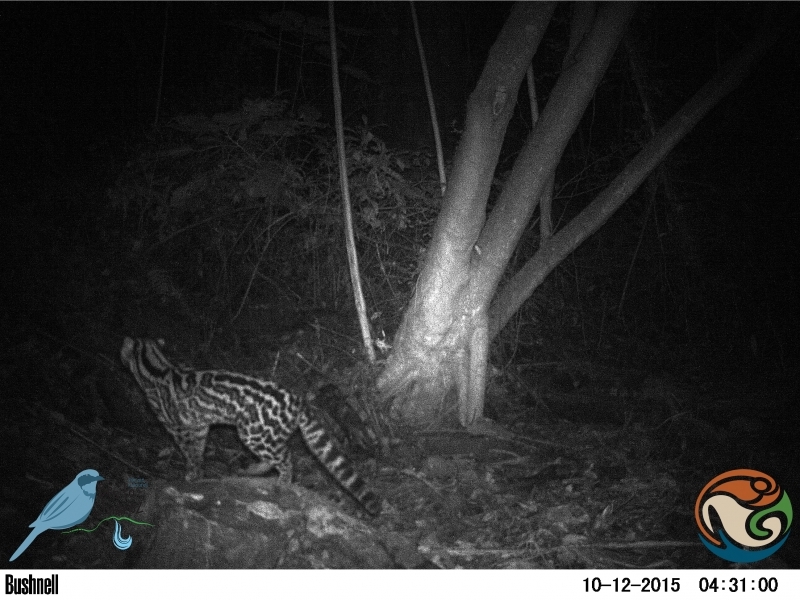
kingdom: Animalia
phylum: Chordata
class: Mammalia
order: Carnivora
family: Felidae
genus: Leopardus
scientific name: Leopardus wiedii
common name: Margay
